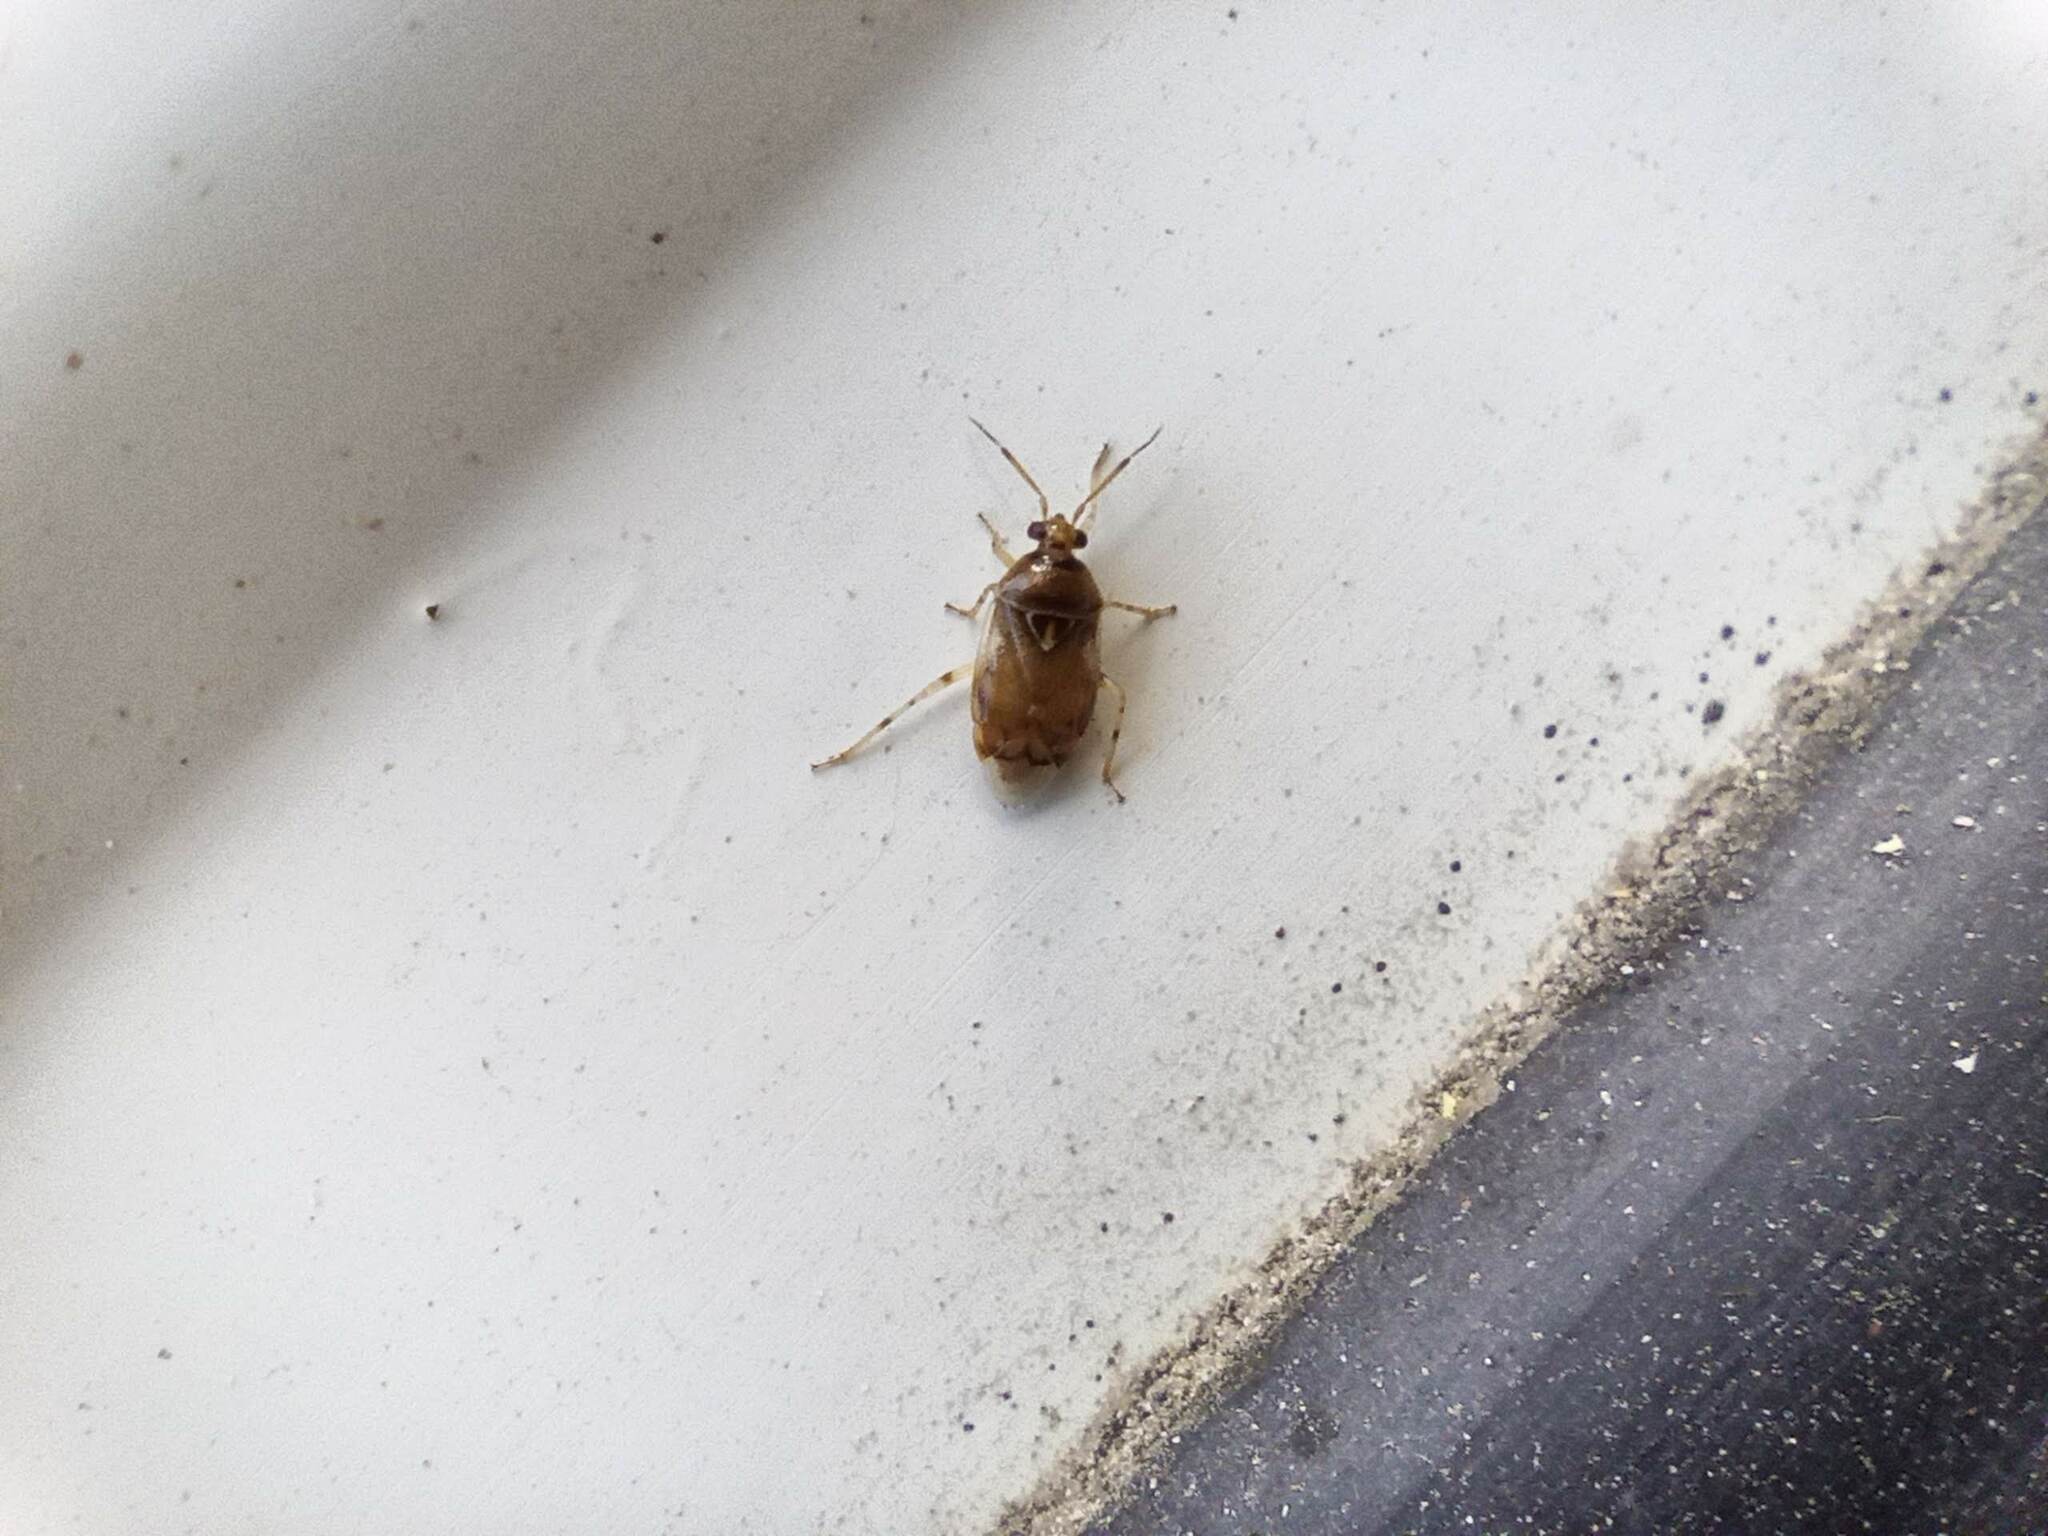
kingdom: Animalia
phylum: Arthropoda
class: Insecta
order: Hemiptera
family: Miridae
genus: Deraeocoris
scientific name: Deraeocoris lutescens
